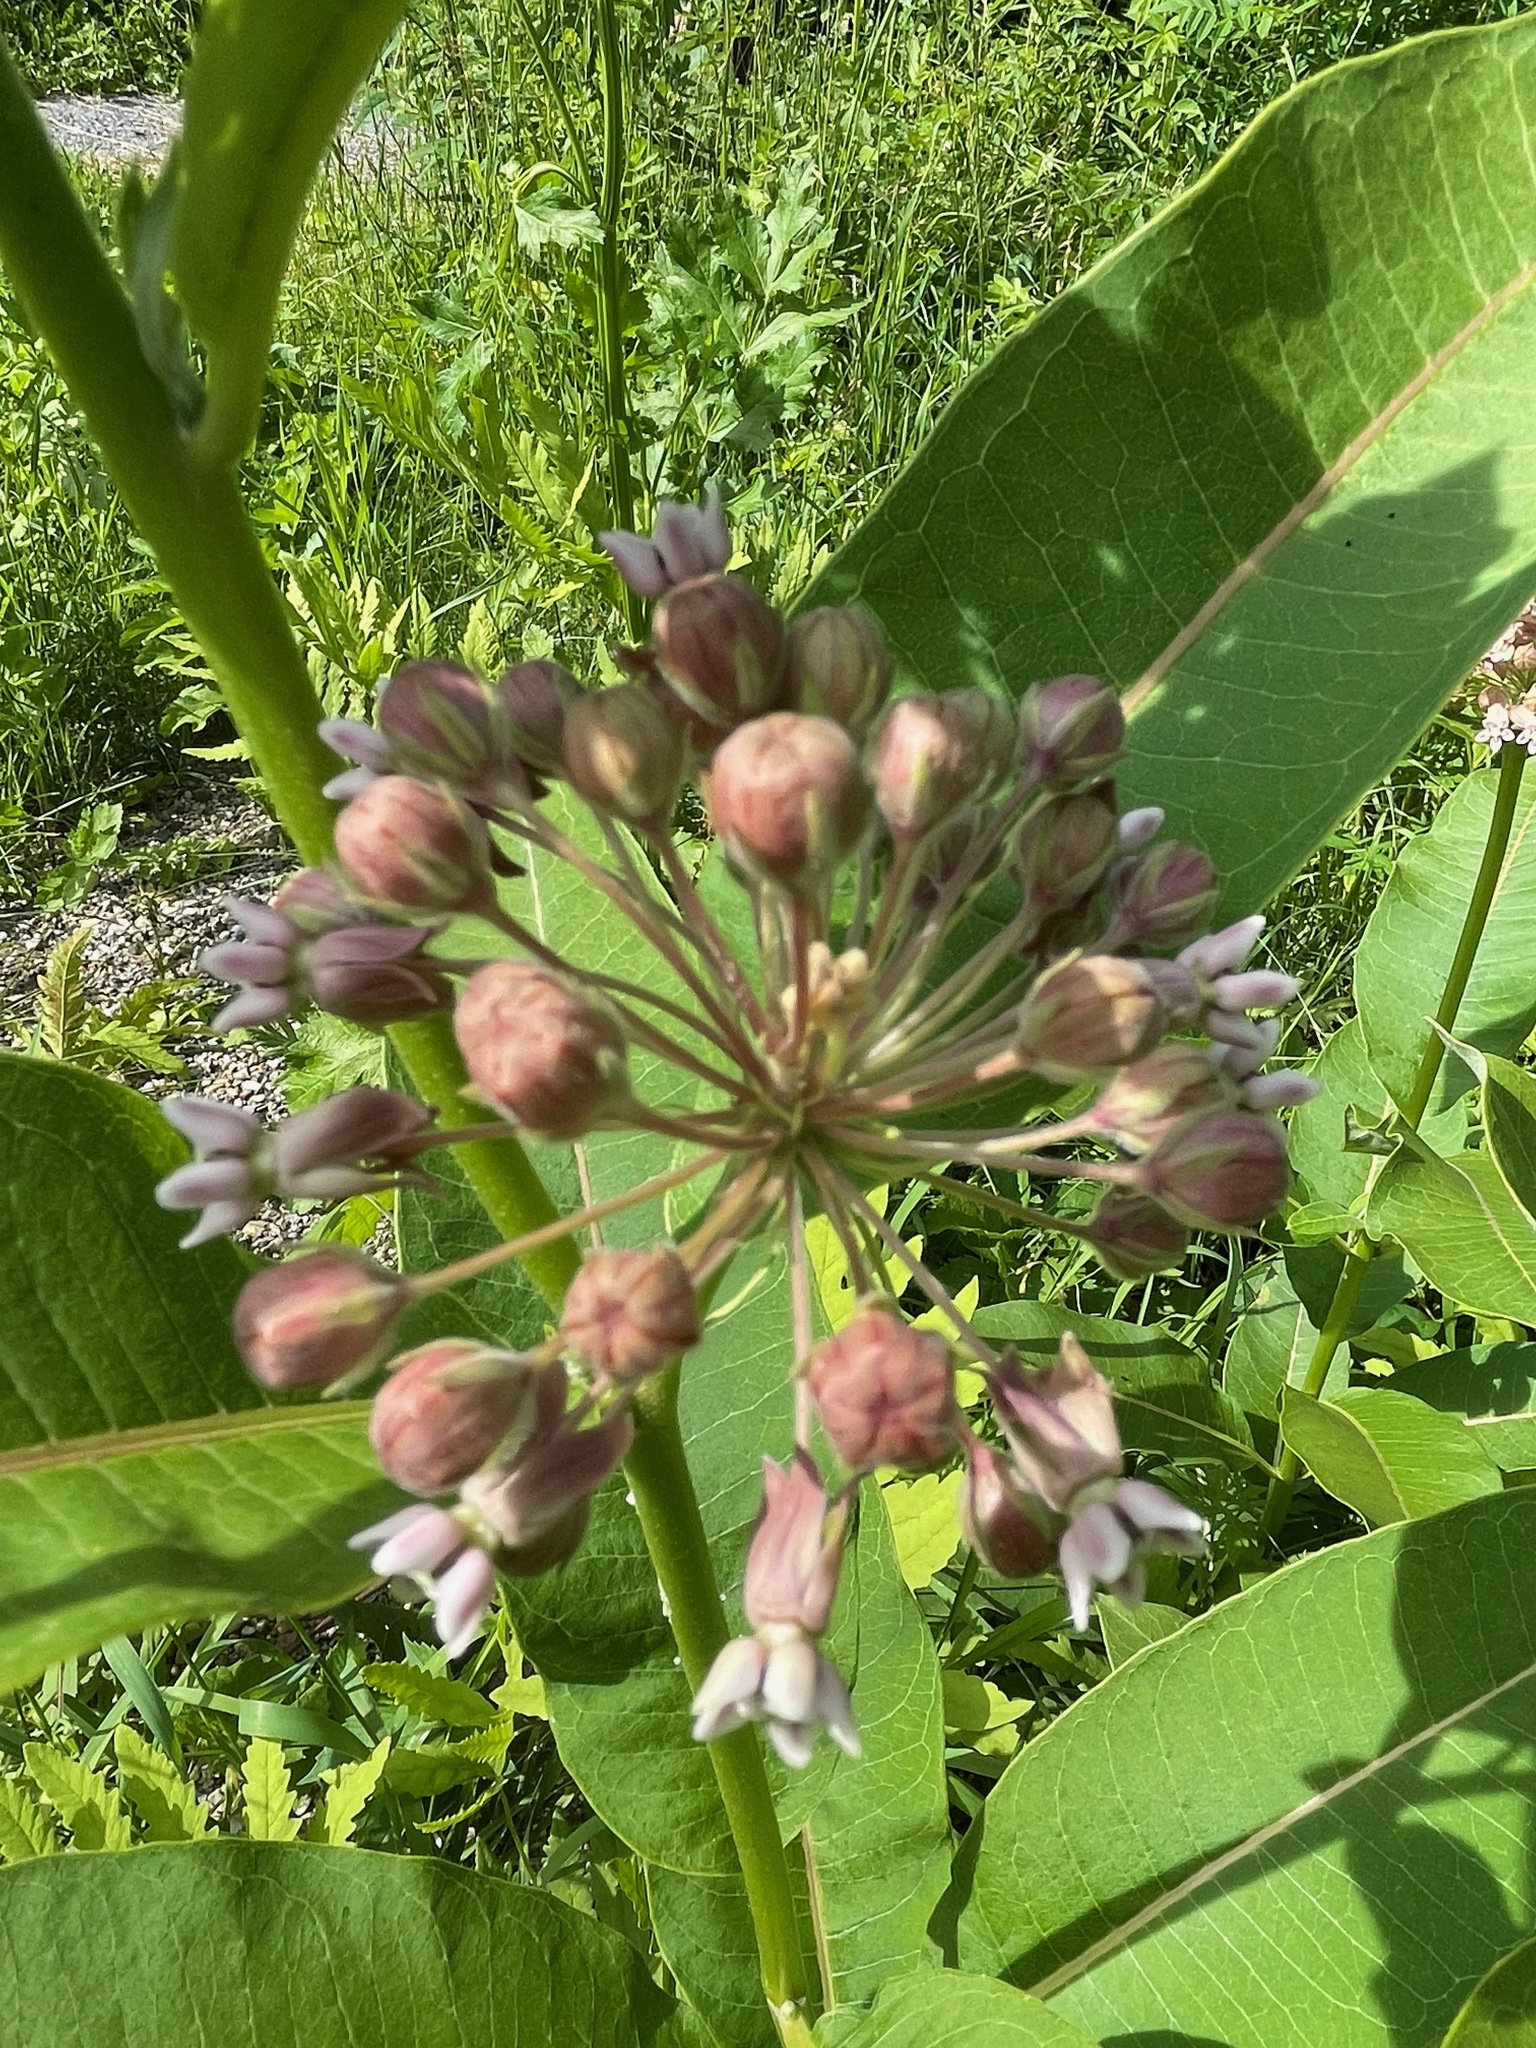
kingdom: Plantae
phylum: Tracheophyta
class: Magnoliopsida
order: Gentianales
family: Apocynaceae
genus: Asclepias
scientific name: Asclepias syriaca
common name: Common milkweed
